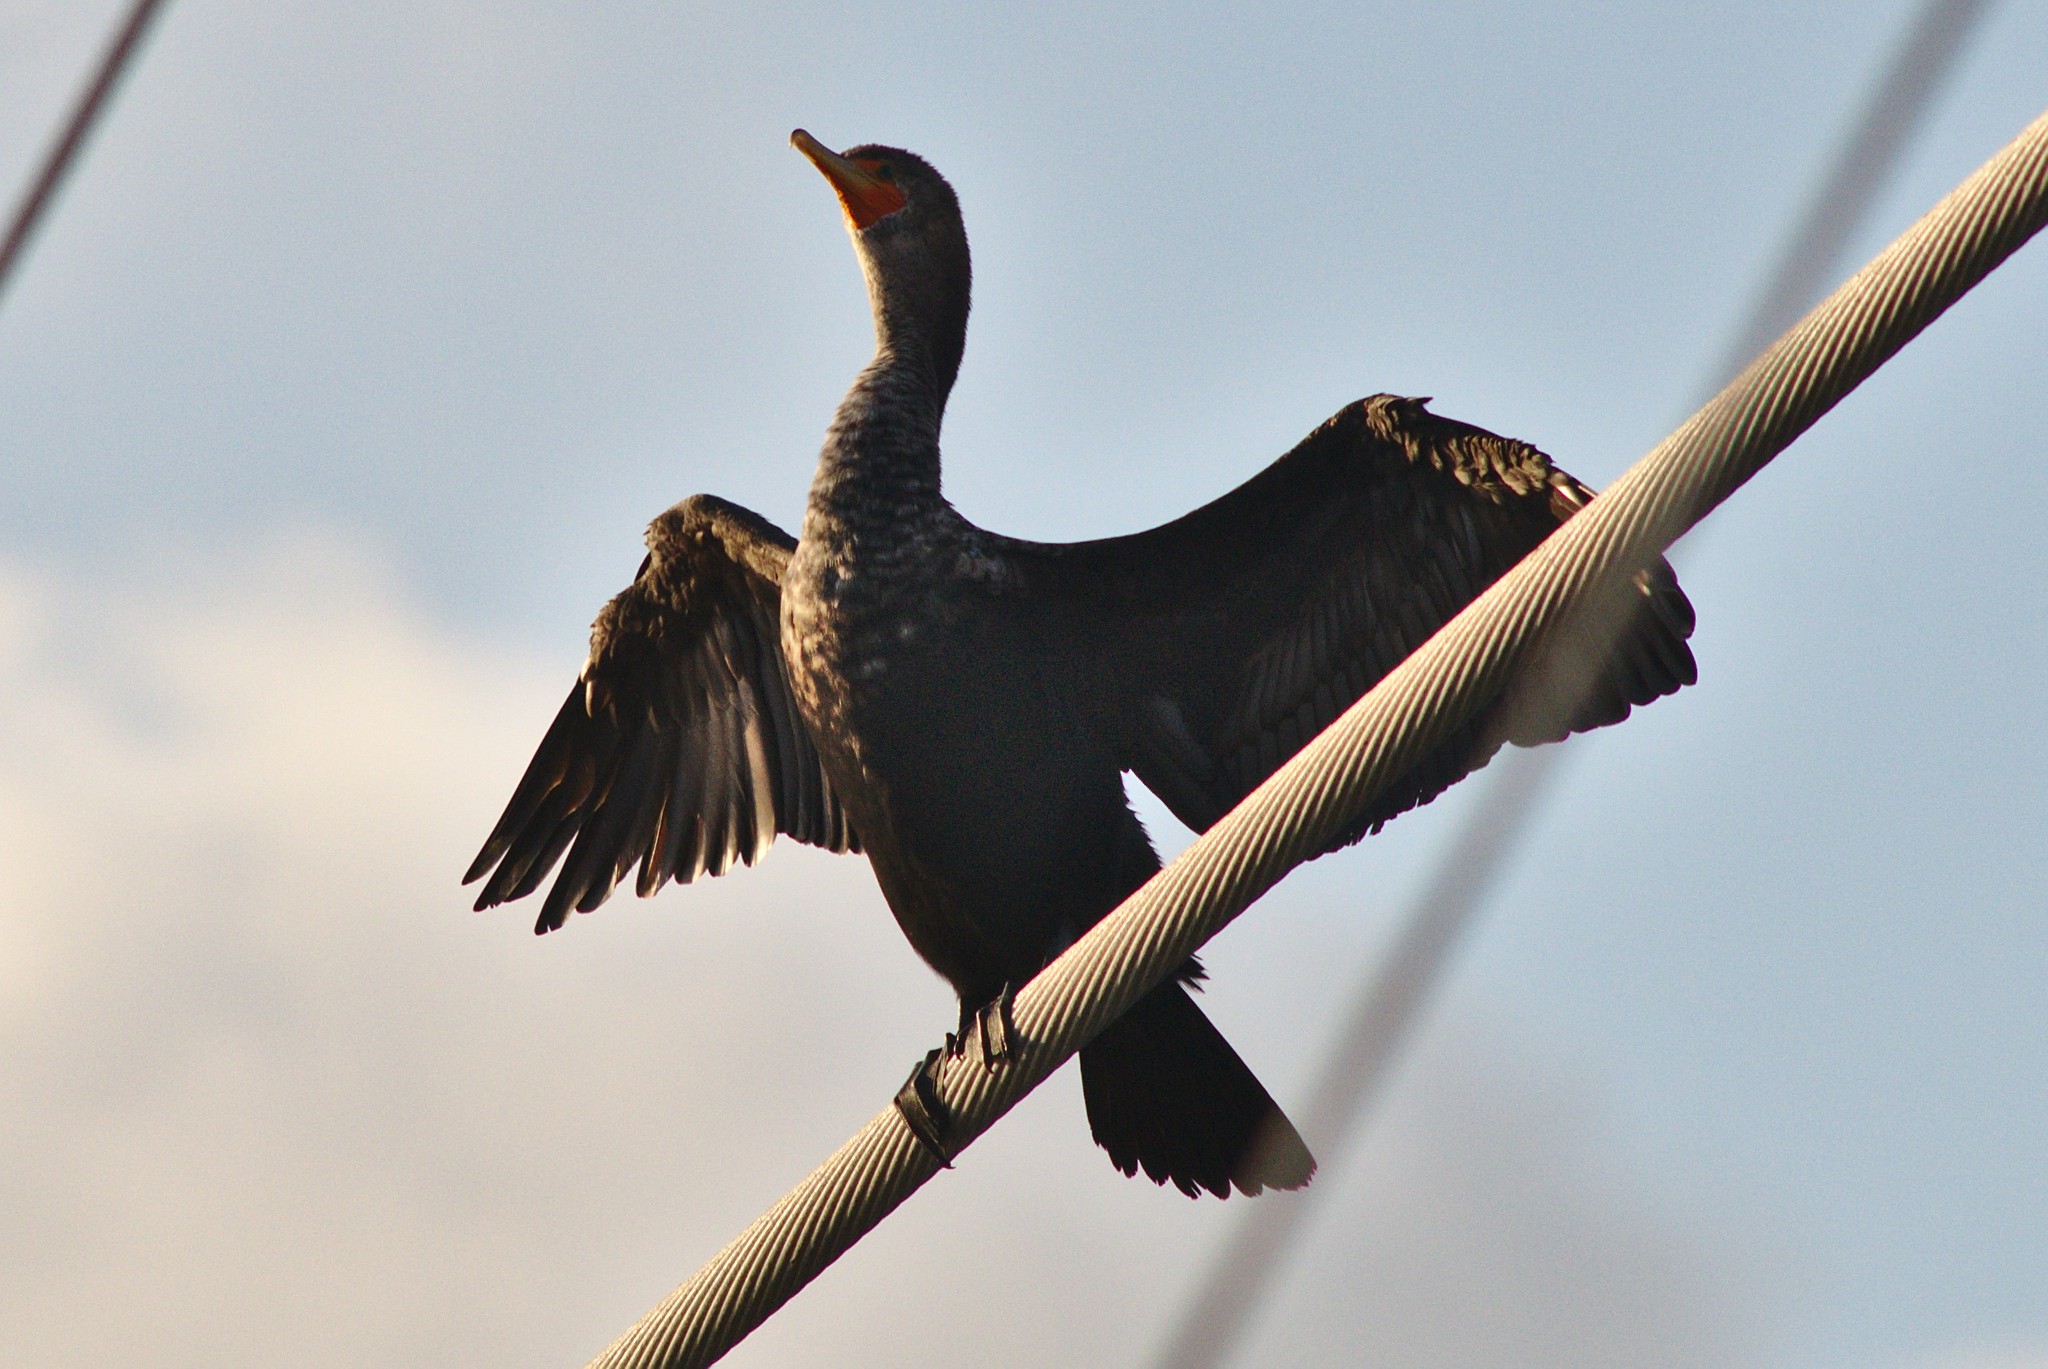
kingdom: Animalia
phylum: Chordata
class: Aves
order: Suliformes
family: Phalacrocoracidae
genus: Phalacrocorax
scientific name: Phalacrocorax auritus
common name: Double-crested cormorant
